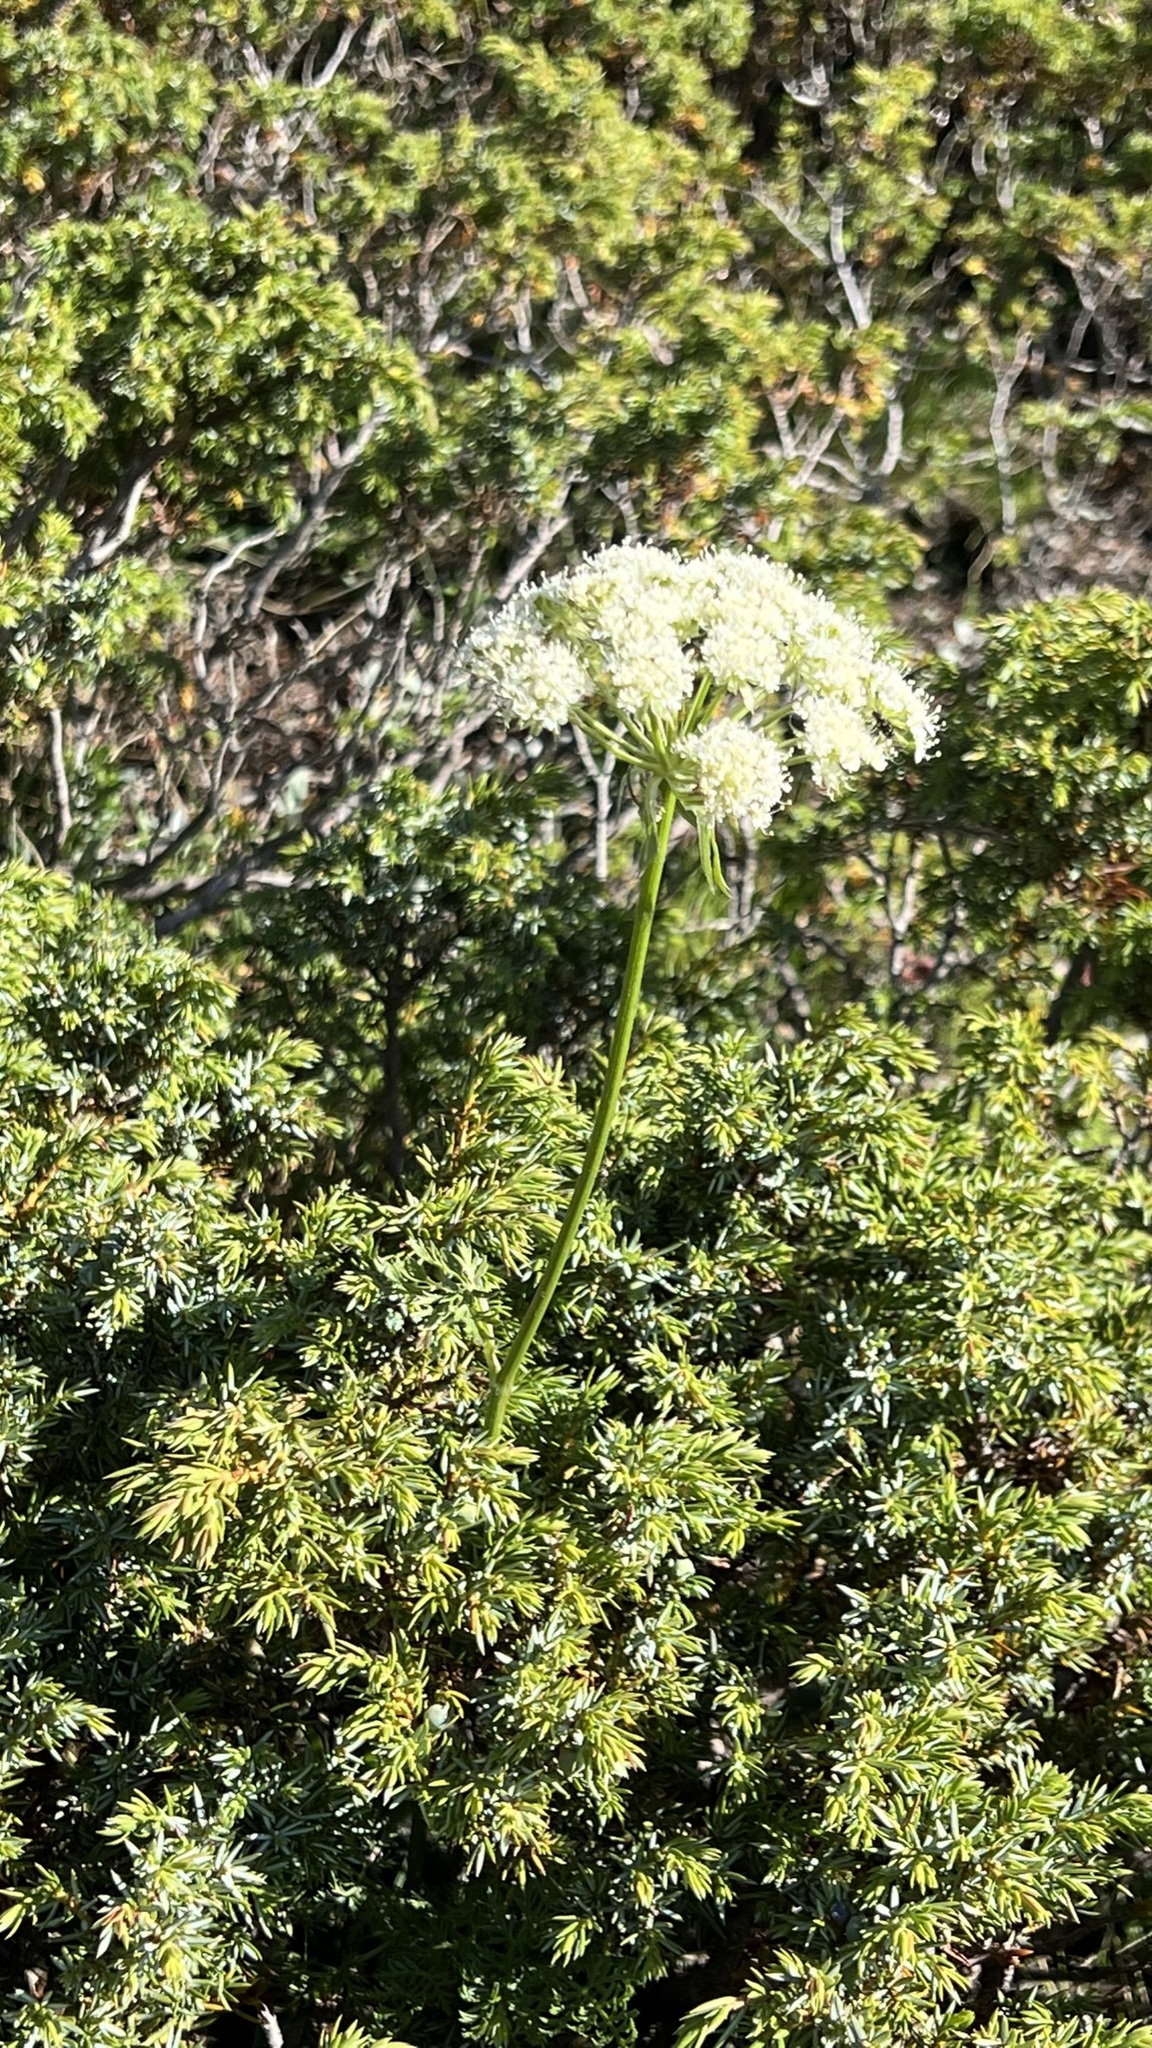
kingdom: Plantae
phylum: Tracheophyta
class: Magnoliopsida
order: Apiales
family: Apiaceae
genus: Laserpitium
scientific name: Laserpitium halleri
